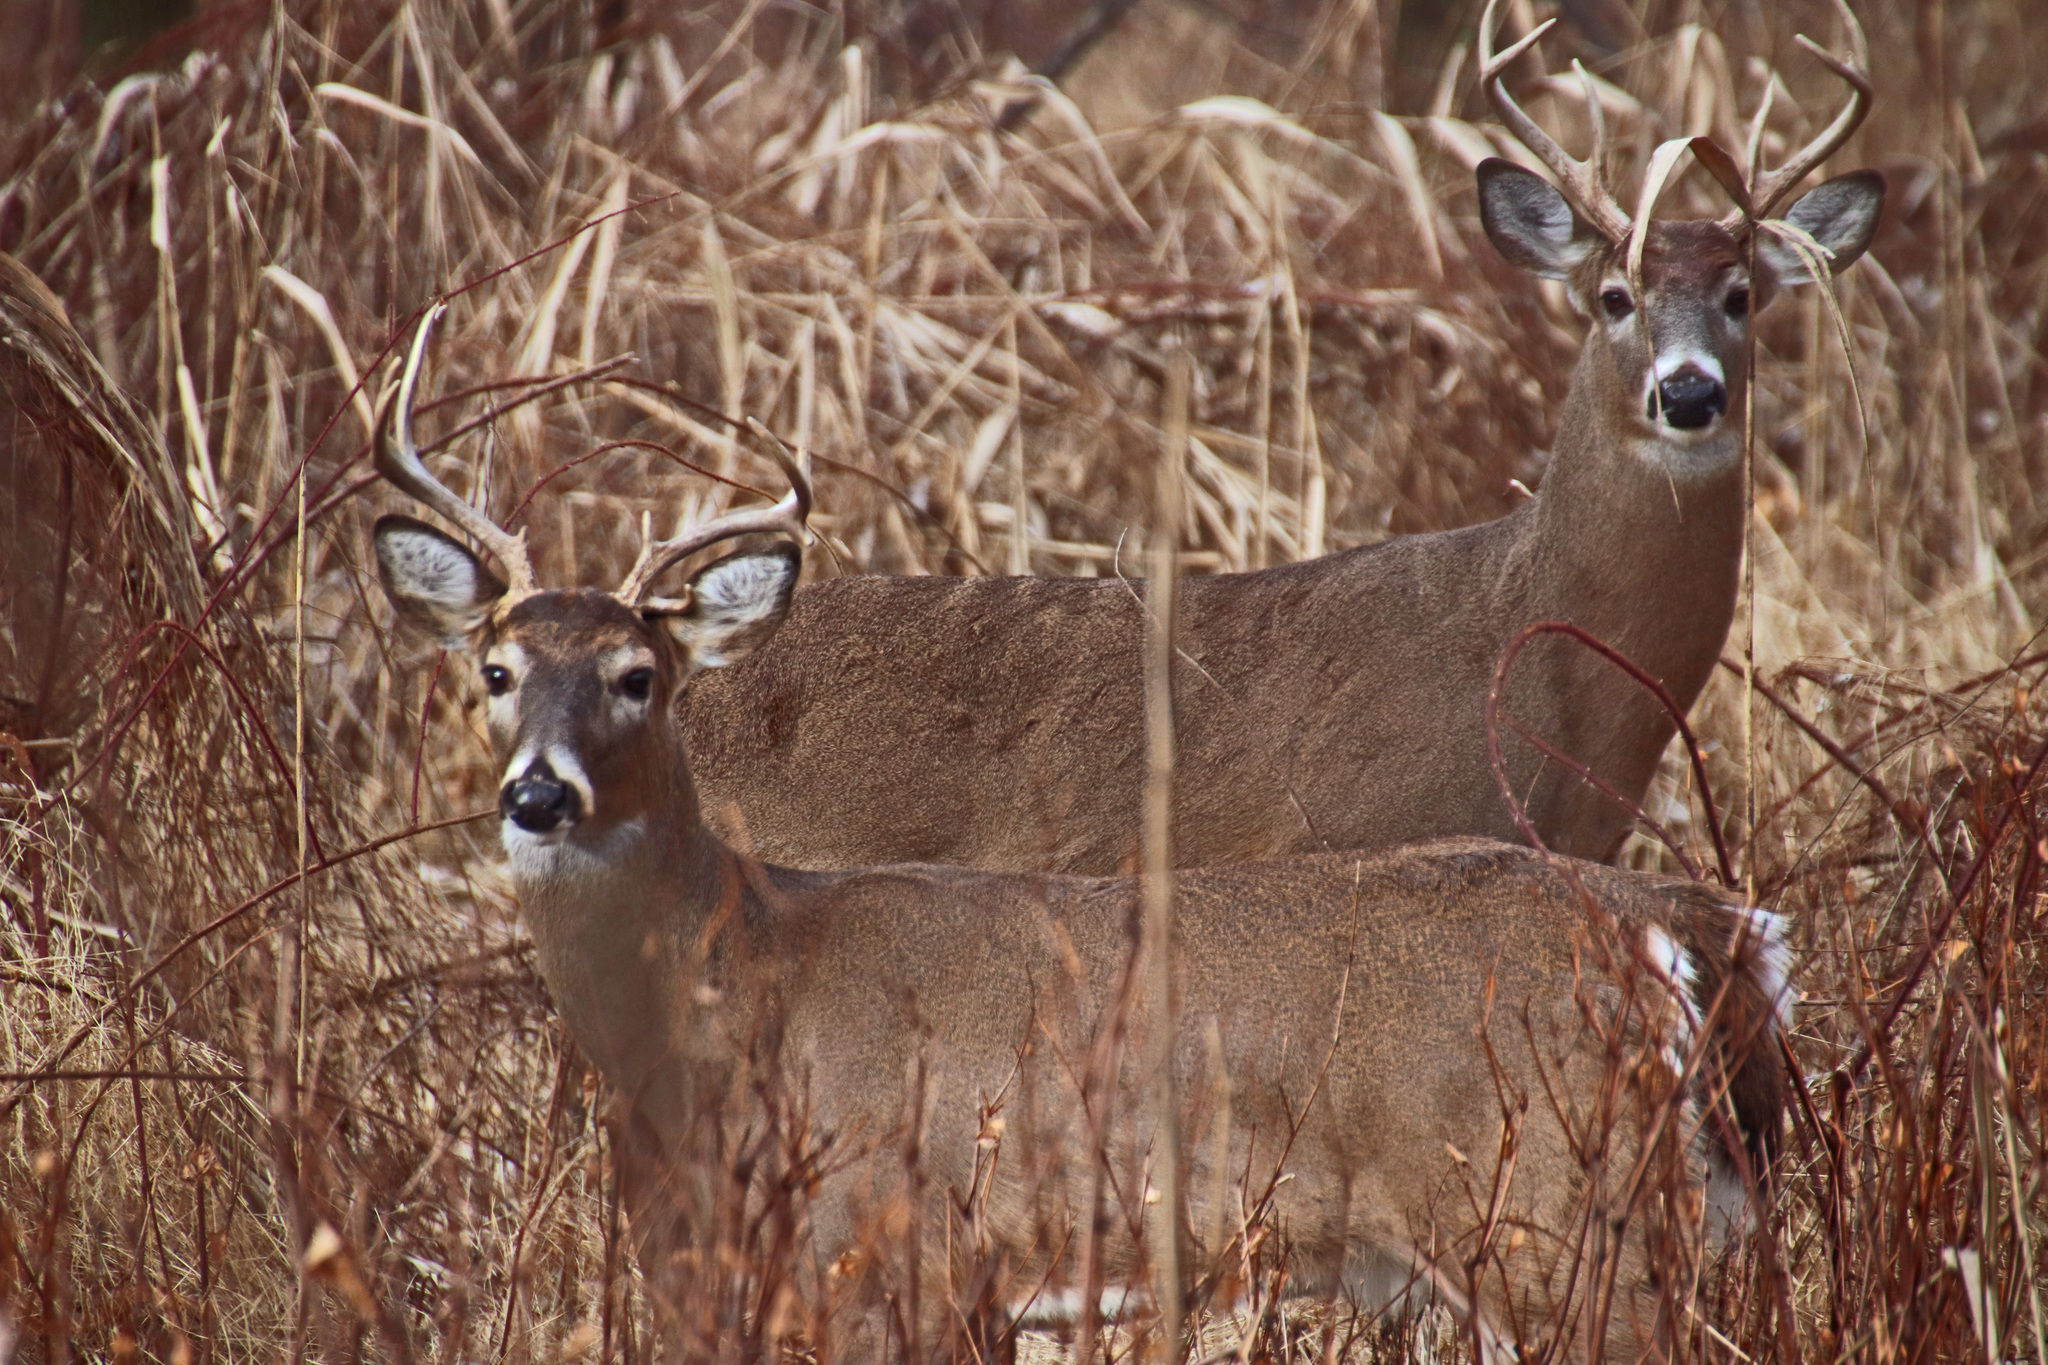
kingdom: Animalia
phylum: Chordata
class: Mammalia
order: Artiodactyla
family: Cervidae
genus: Odocoileus
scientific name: Odocoileus virginianus
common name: White-tailed deer
